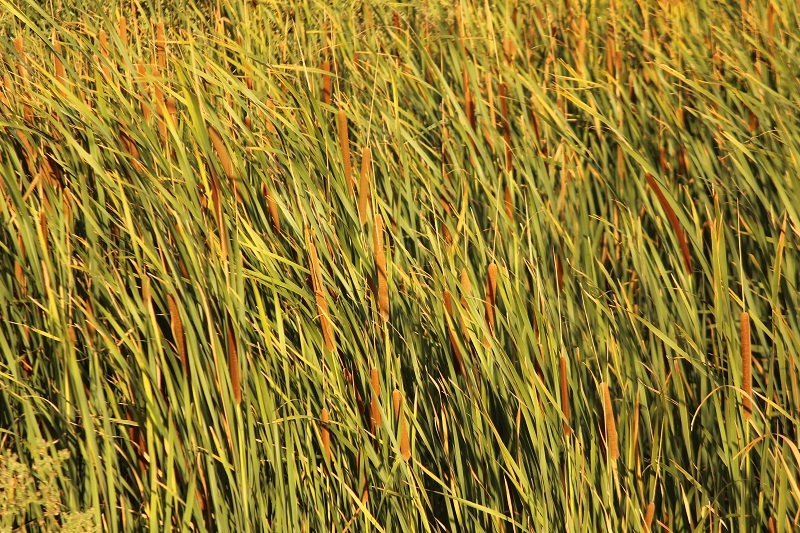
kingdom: Plantae
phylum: Tracheophyta
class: Liliopsida
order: Poales
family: Typhaceae
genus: Typha
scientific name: Typha capensis
